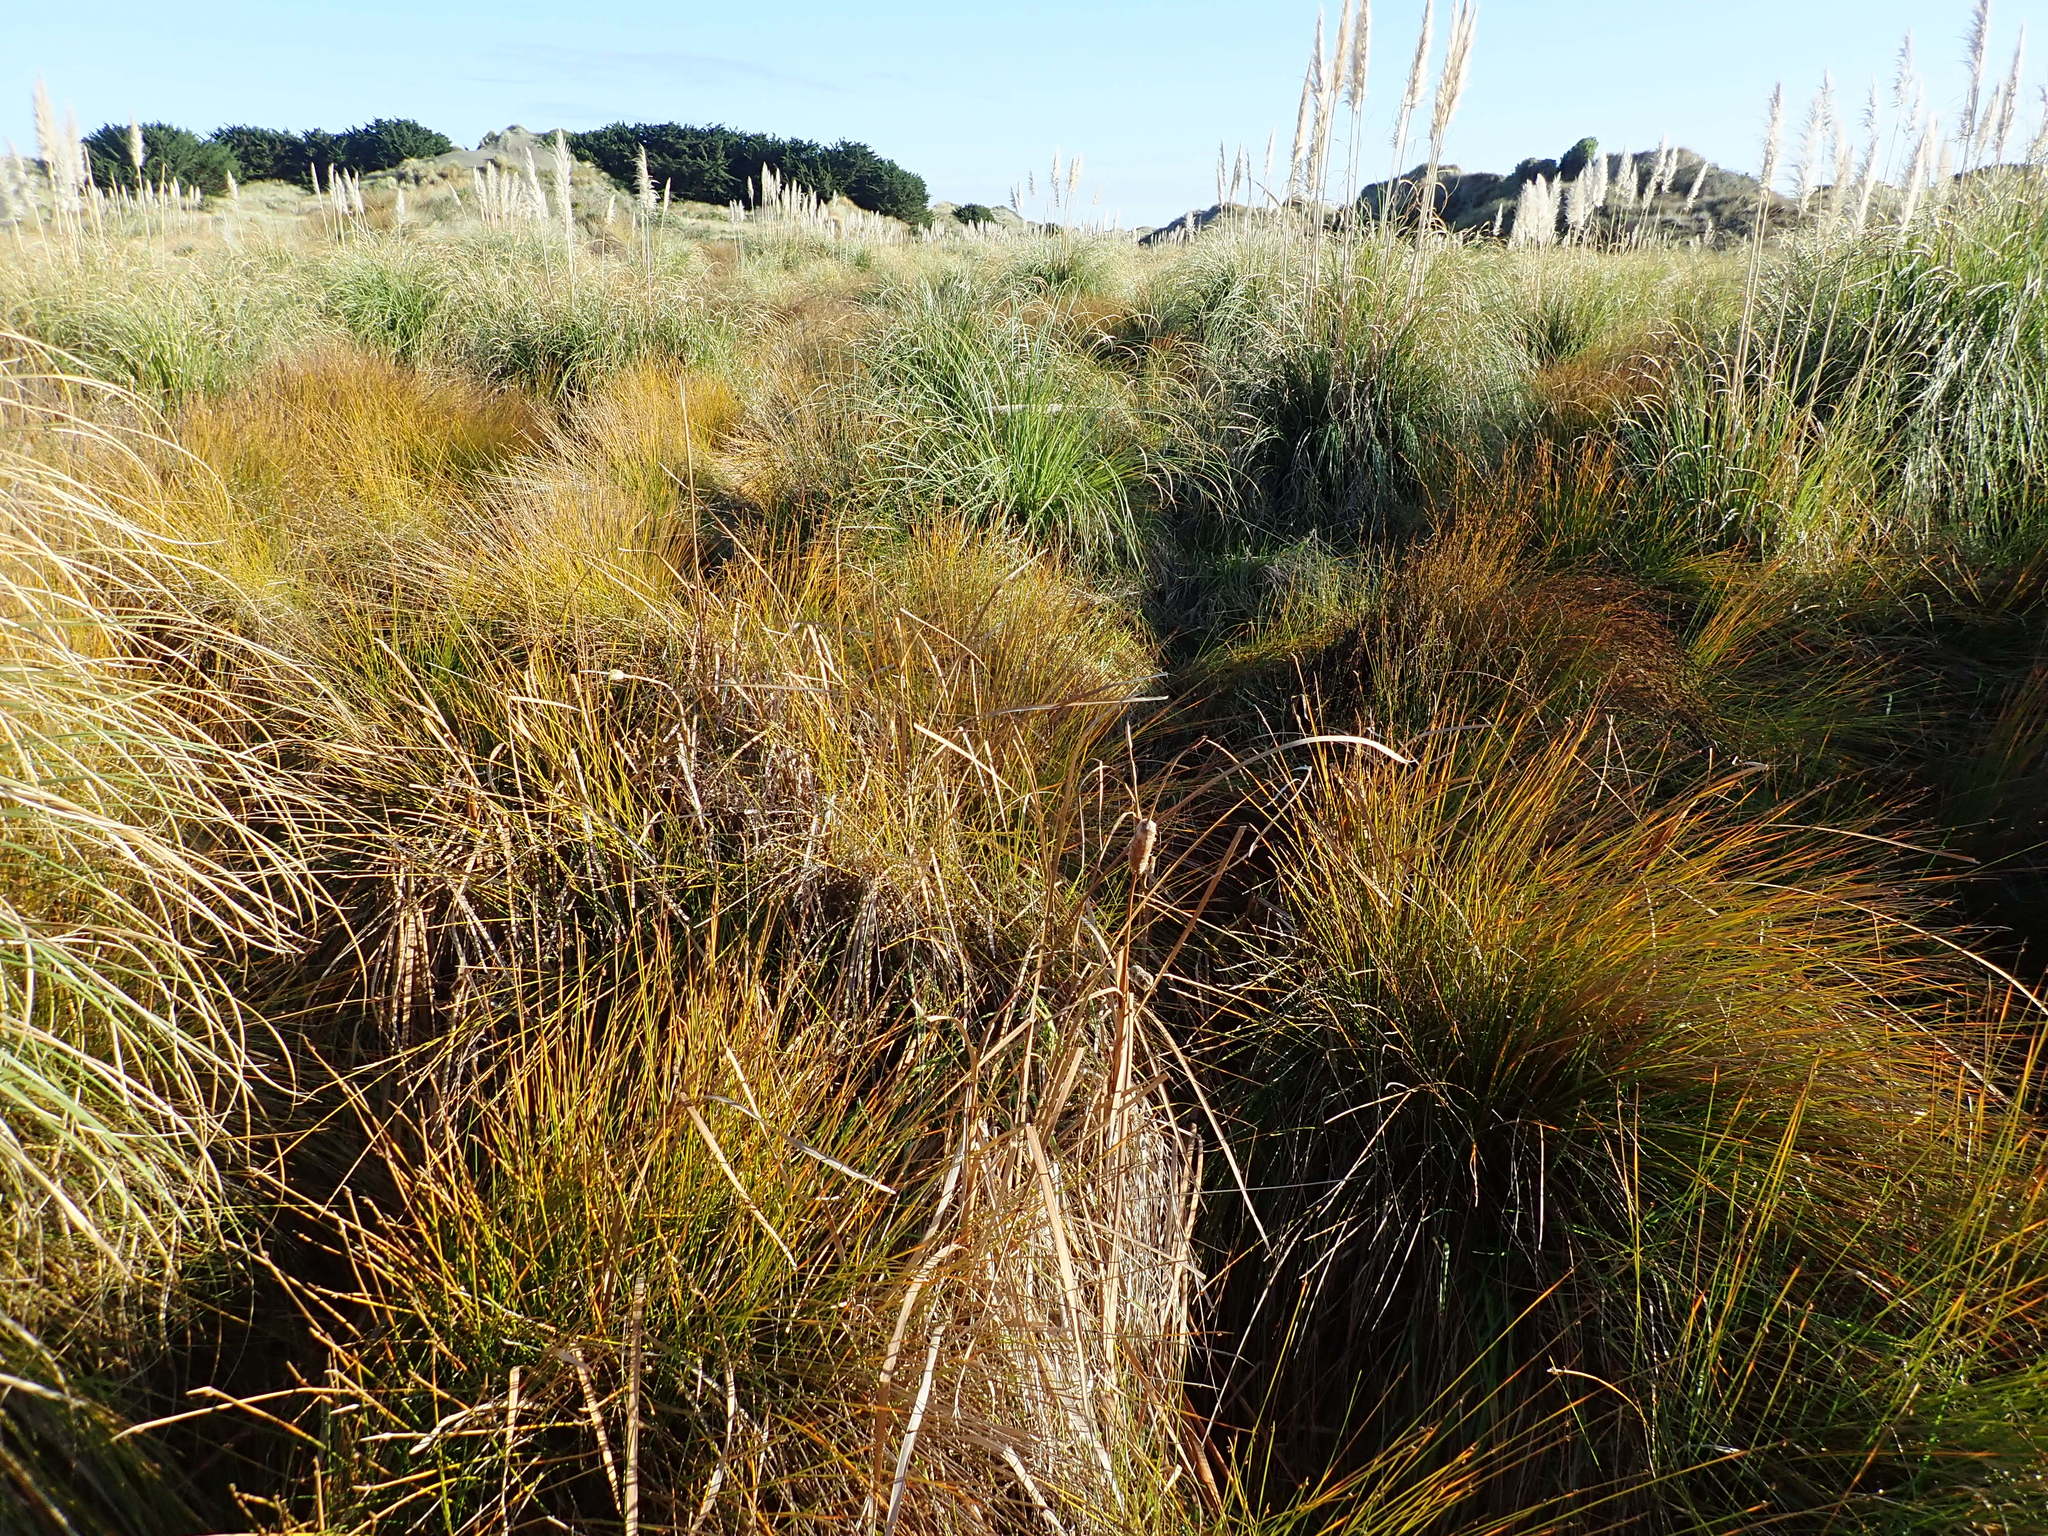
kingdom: Plantae
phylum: Tracheophyta
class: Liliopsida
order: Poales
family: Typhaceae
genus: Typha
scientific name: Typha orientalis
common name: Bullrush
